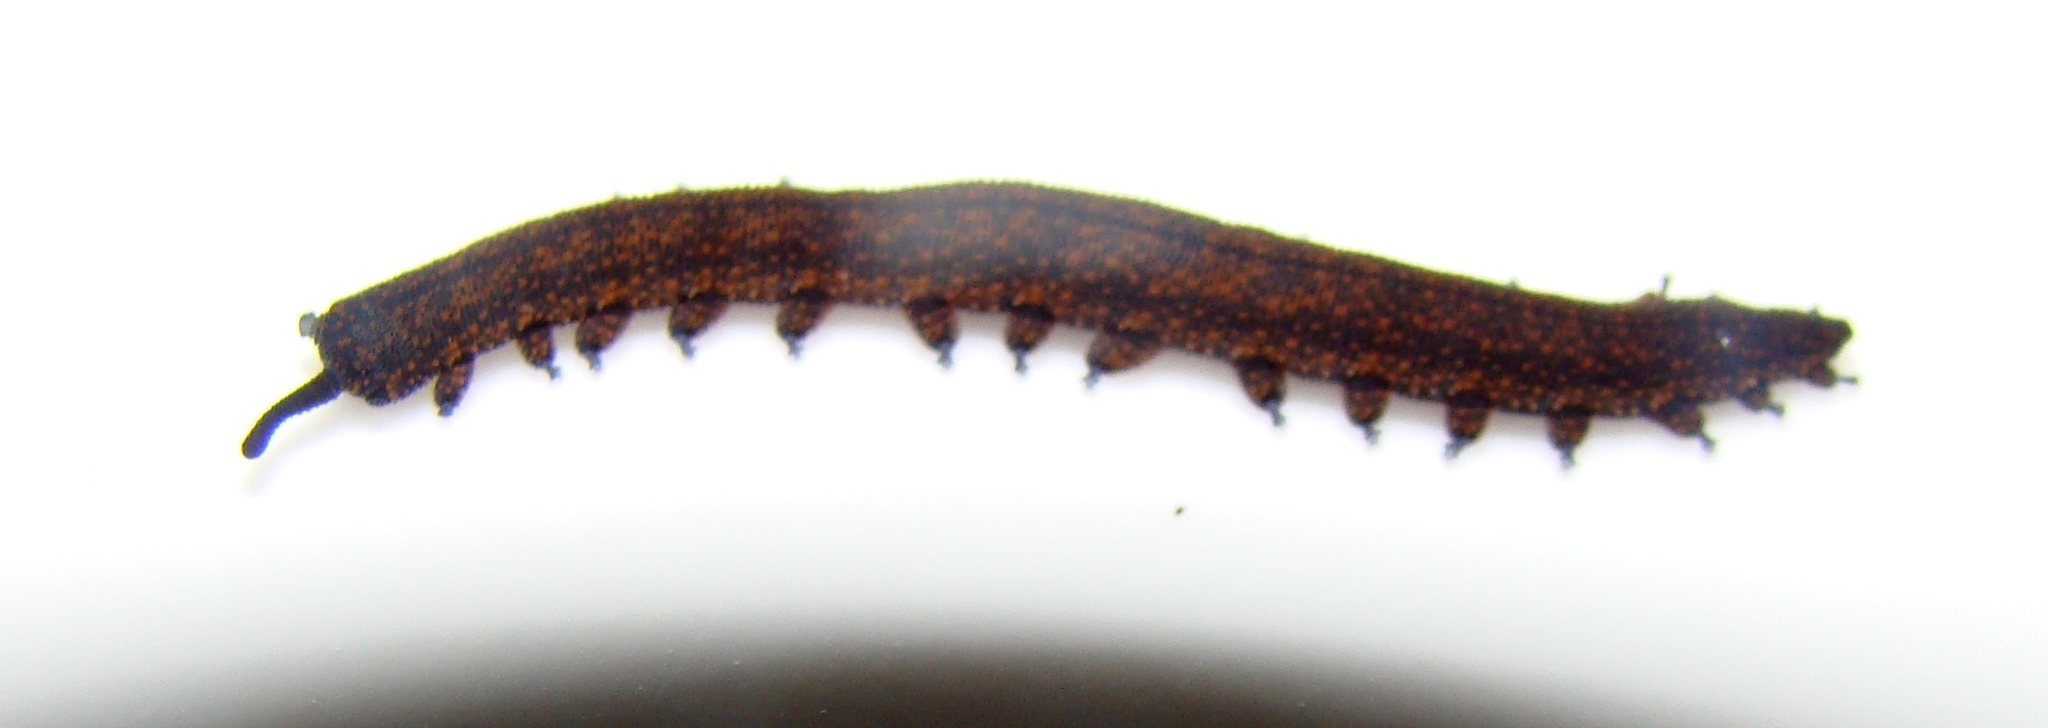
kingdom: Animalia
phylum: Onychophora
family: Peripatopsidae
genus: Peripatoides
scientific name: Peripatoides novaezealandiae
